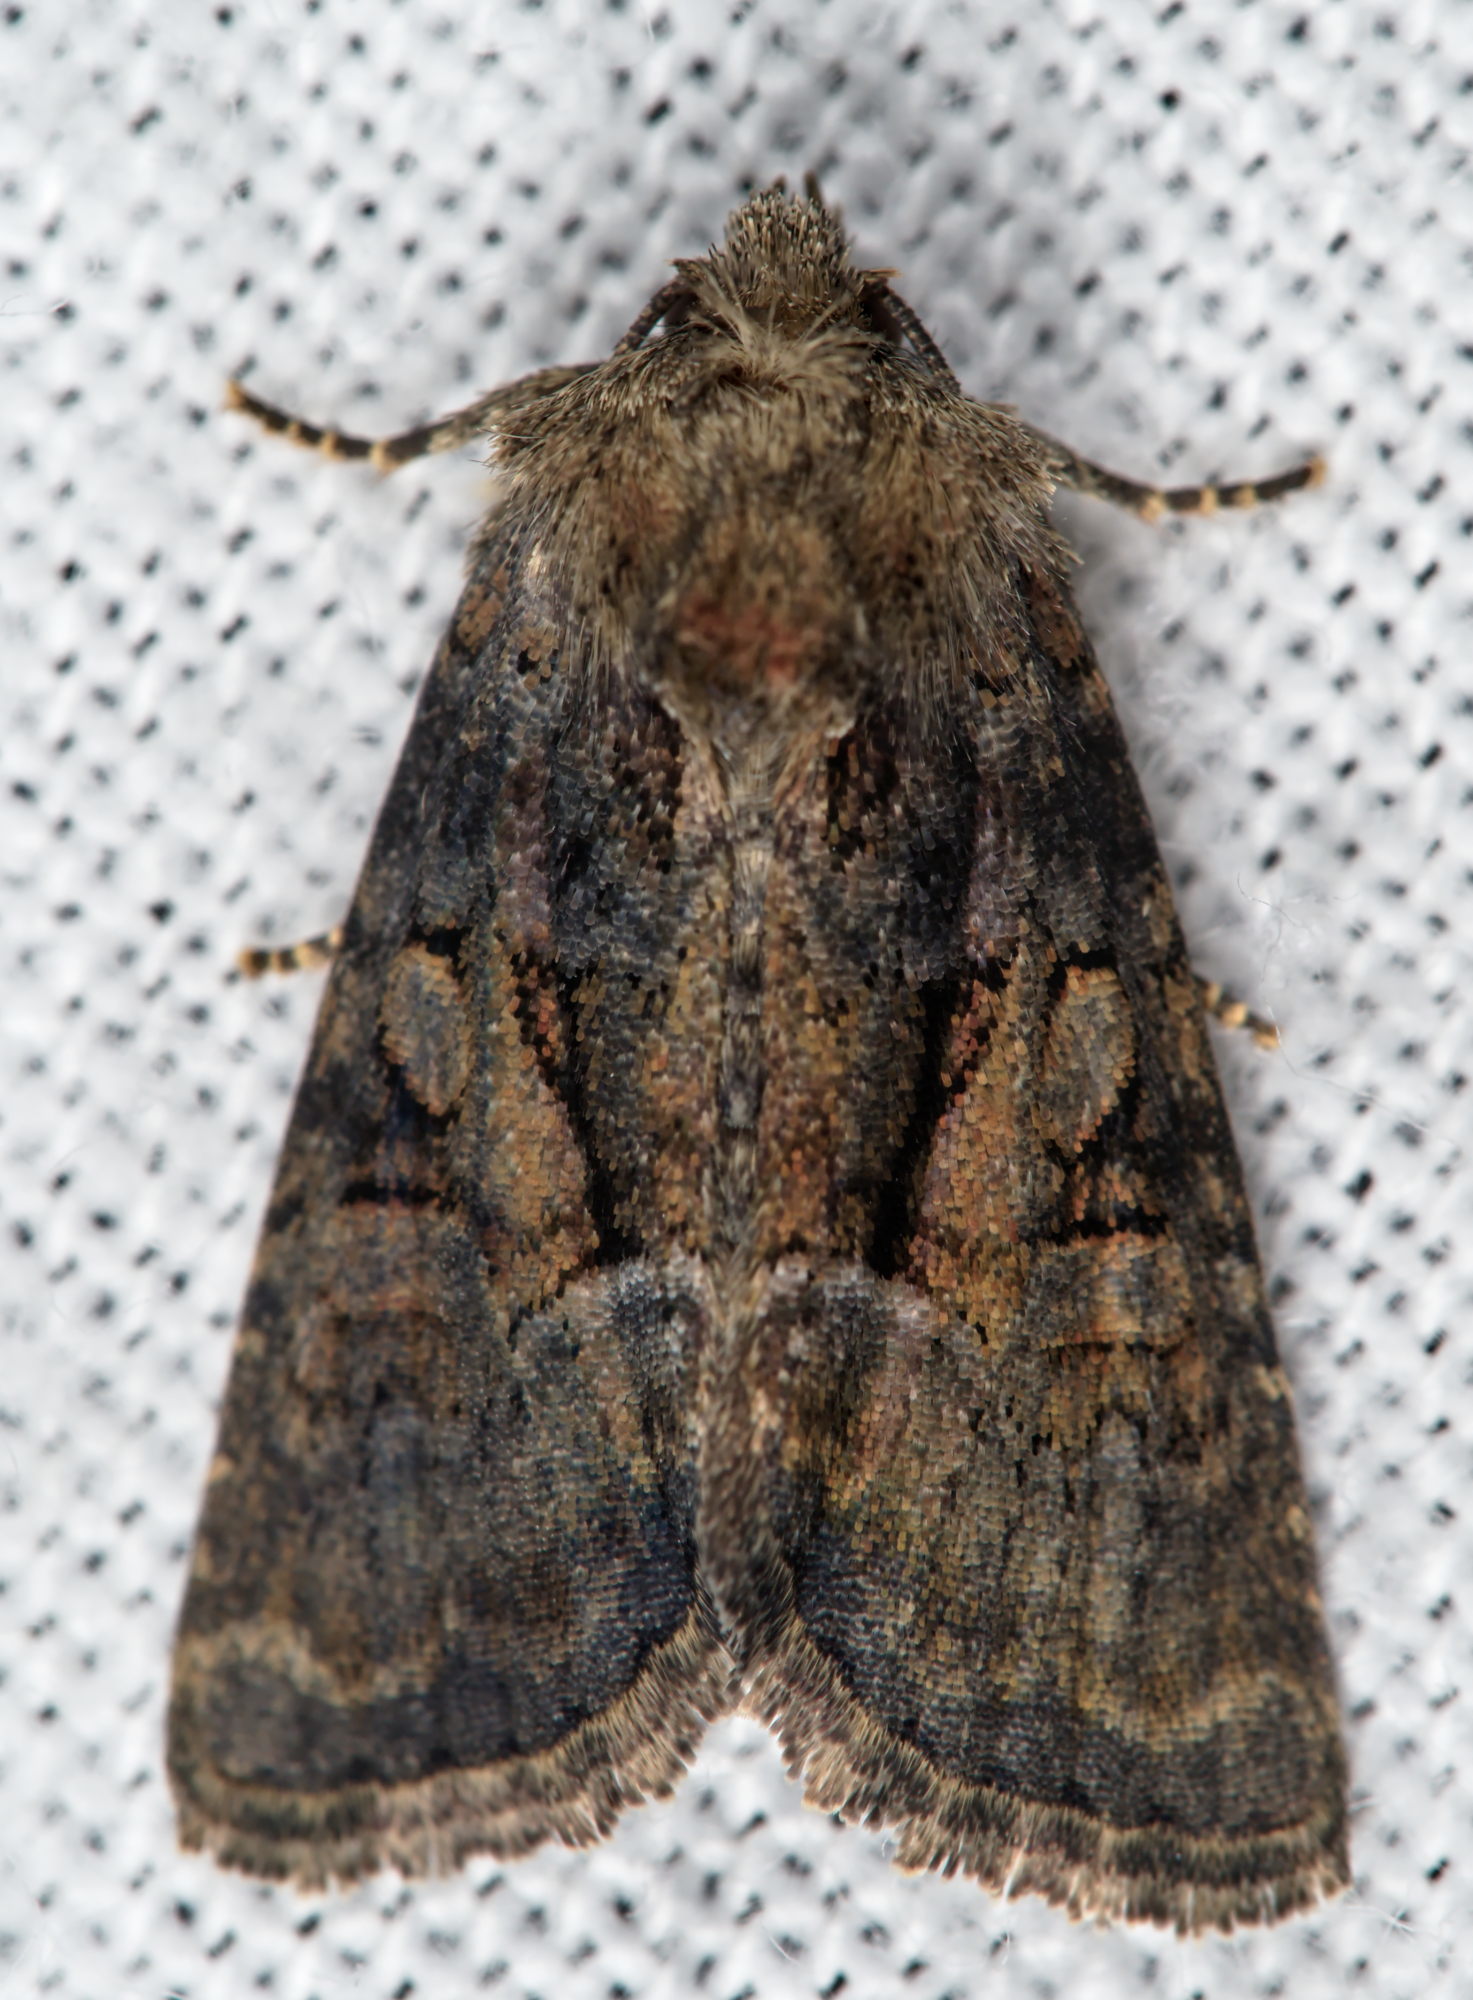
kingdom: Animalia
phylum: Arthropoda
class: Insecta
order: Lepidoptera
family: Noctuidae
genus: Oligia
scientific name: Oligia
